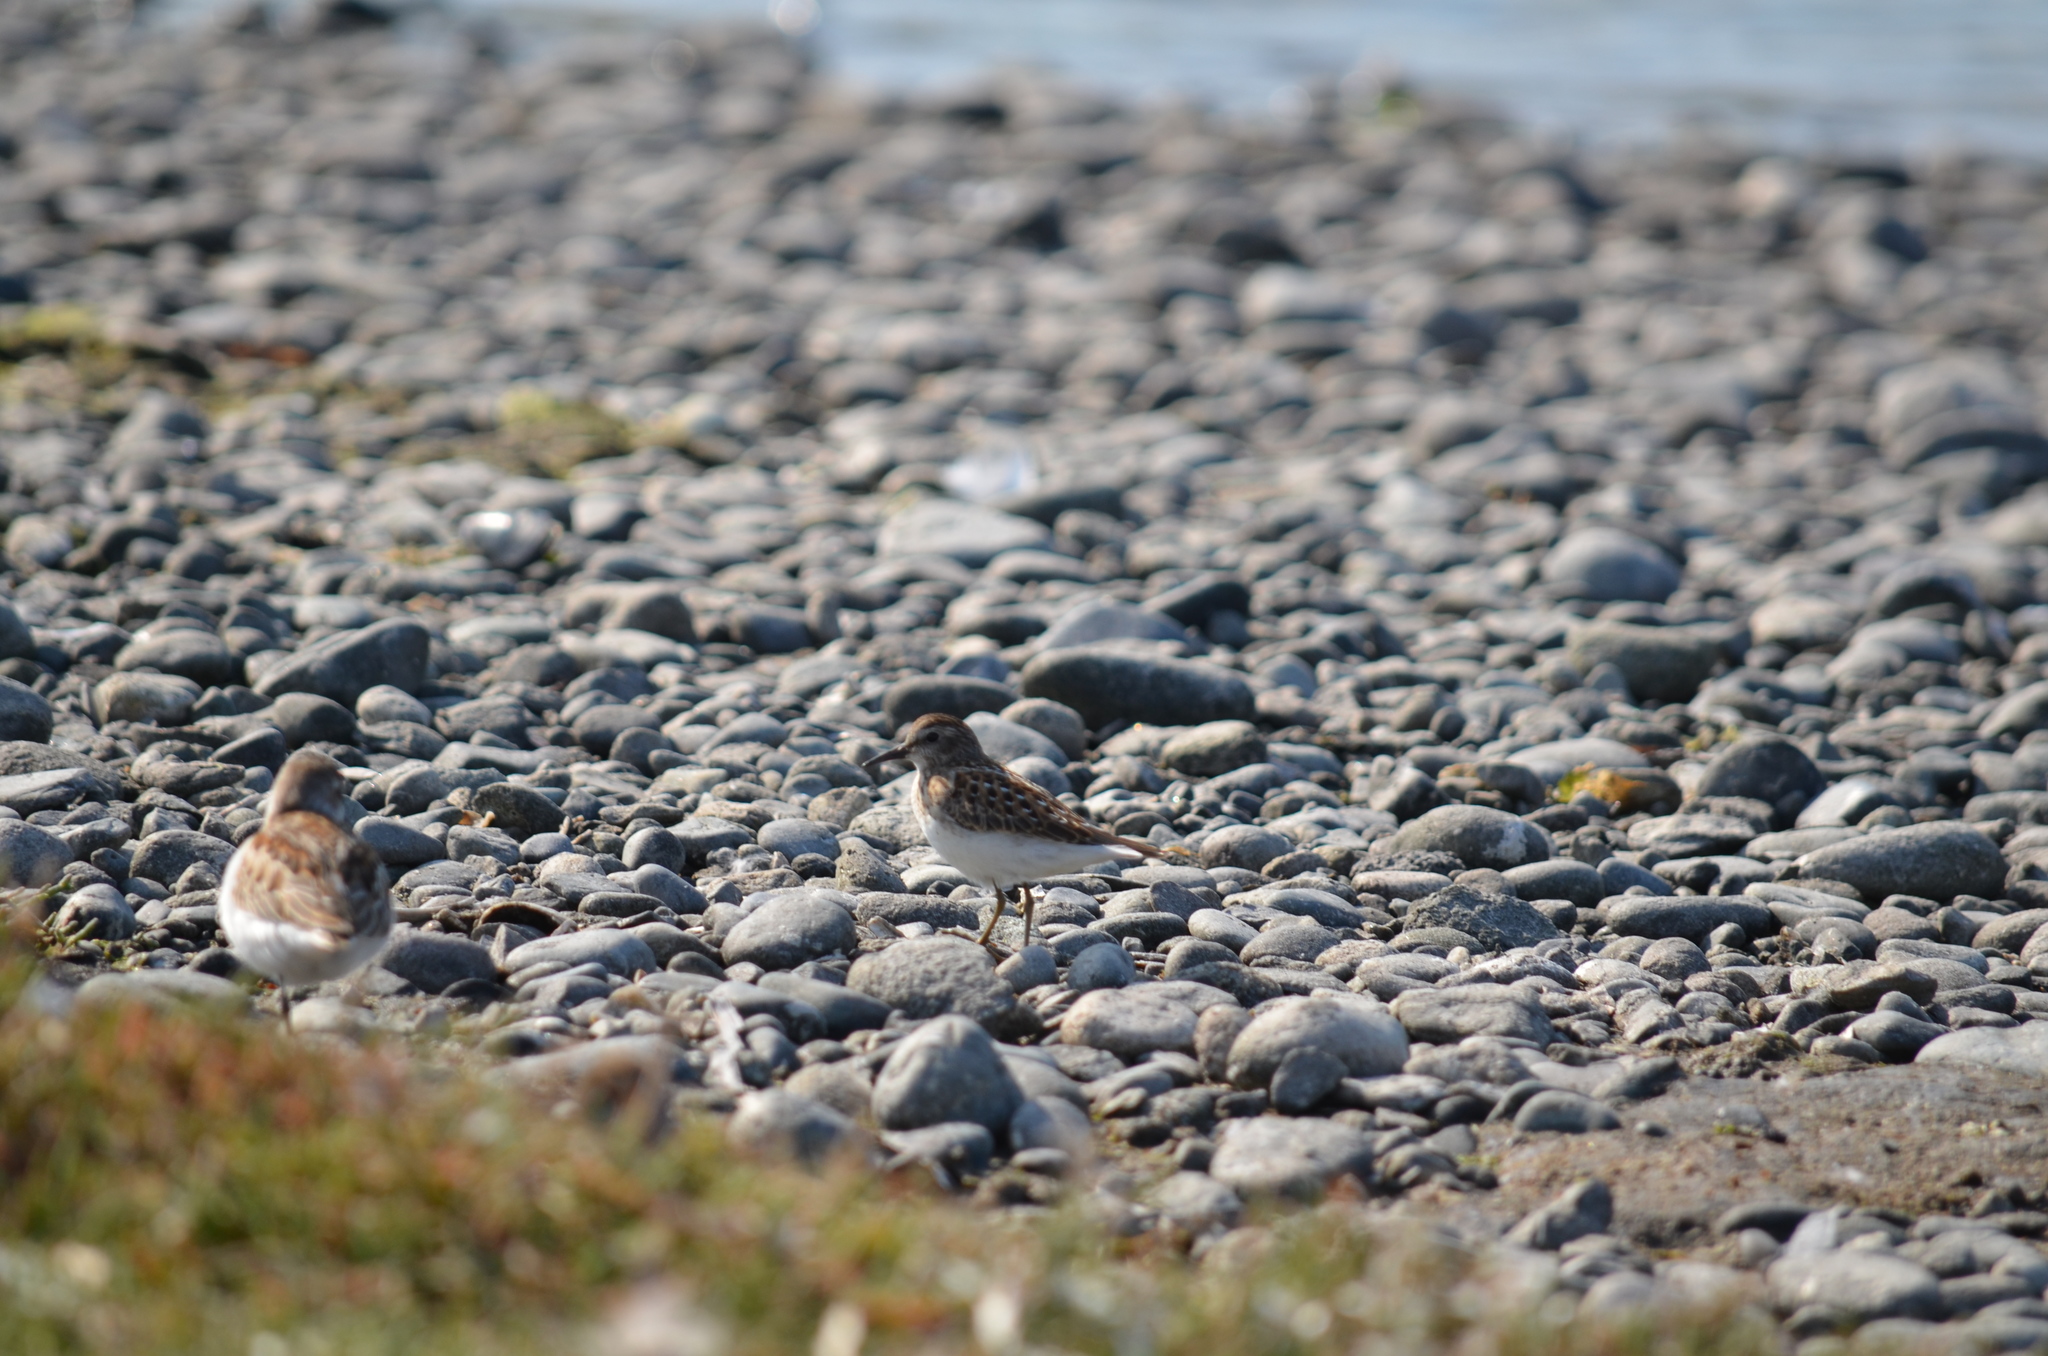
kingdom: Animalia
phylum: Chordata
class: Aves
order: Charadriiformes
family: Scolopacidae
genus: Calidris
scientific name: Calidris minutilla
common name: Least sandpiper
